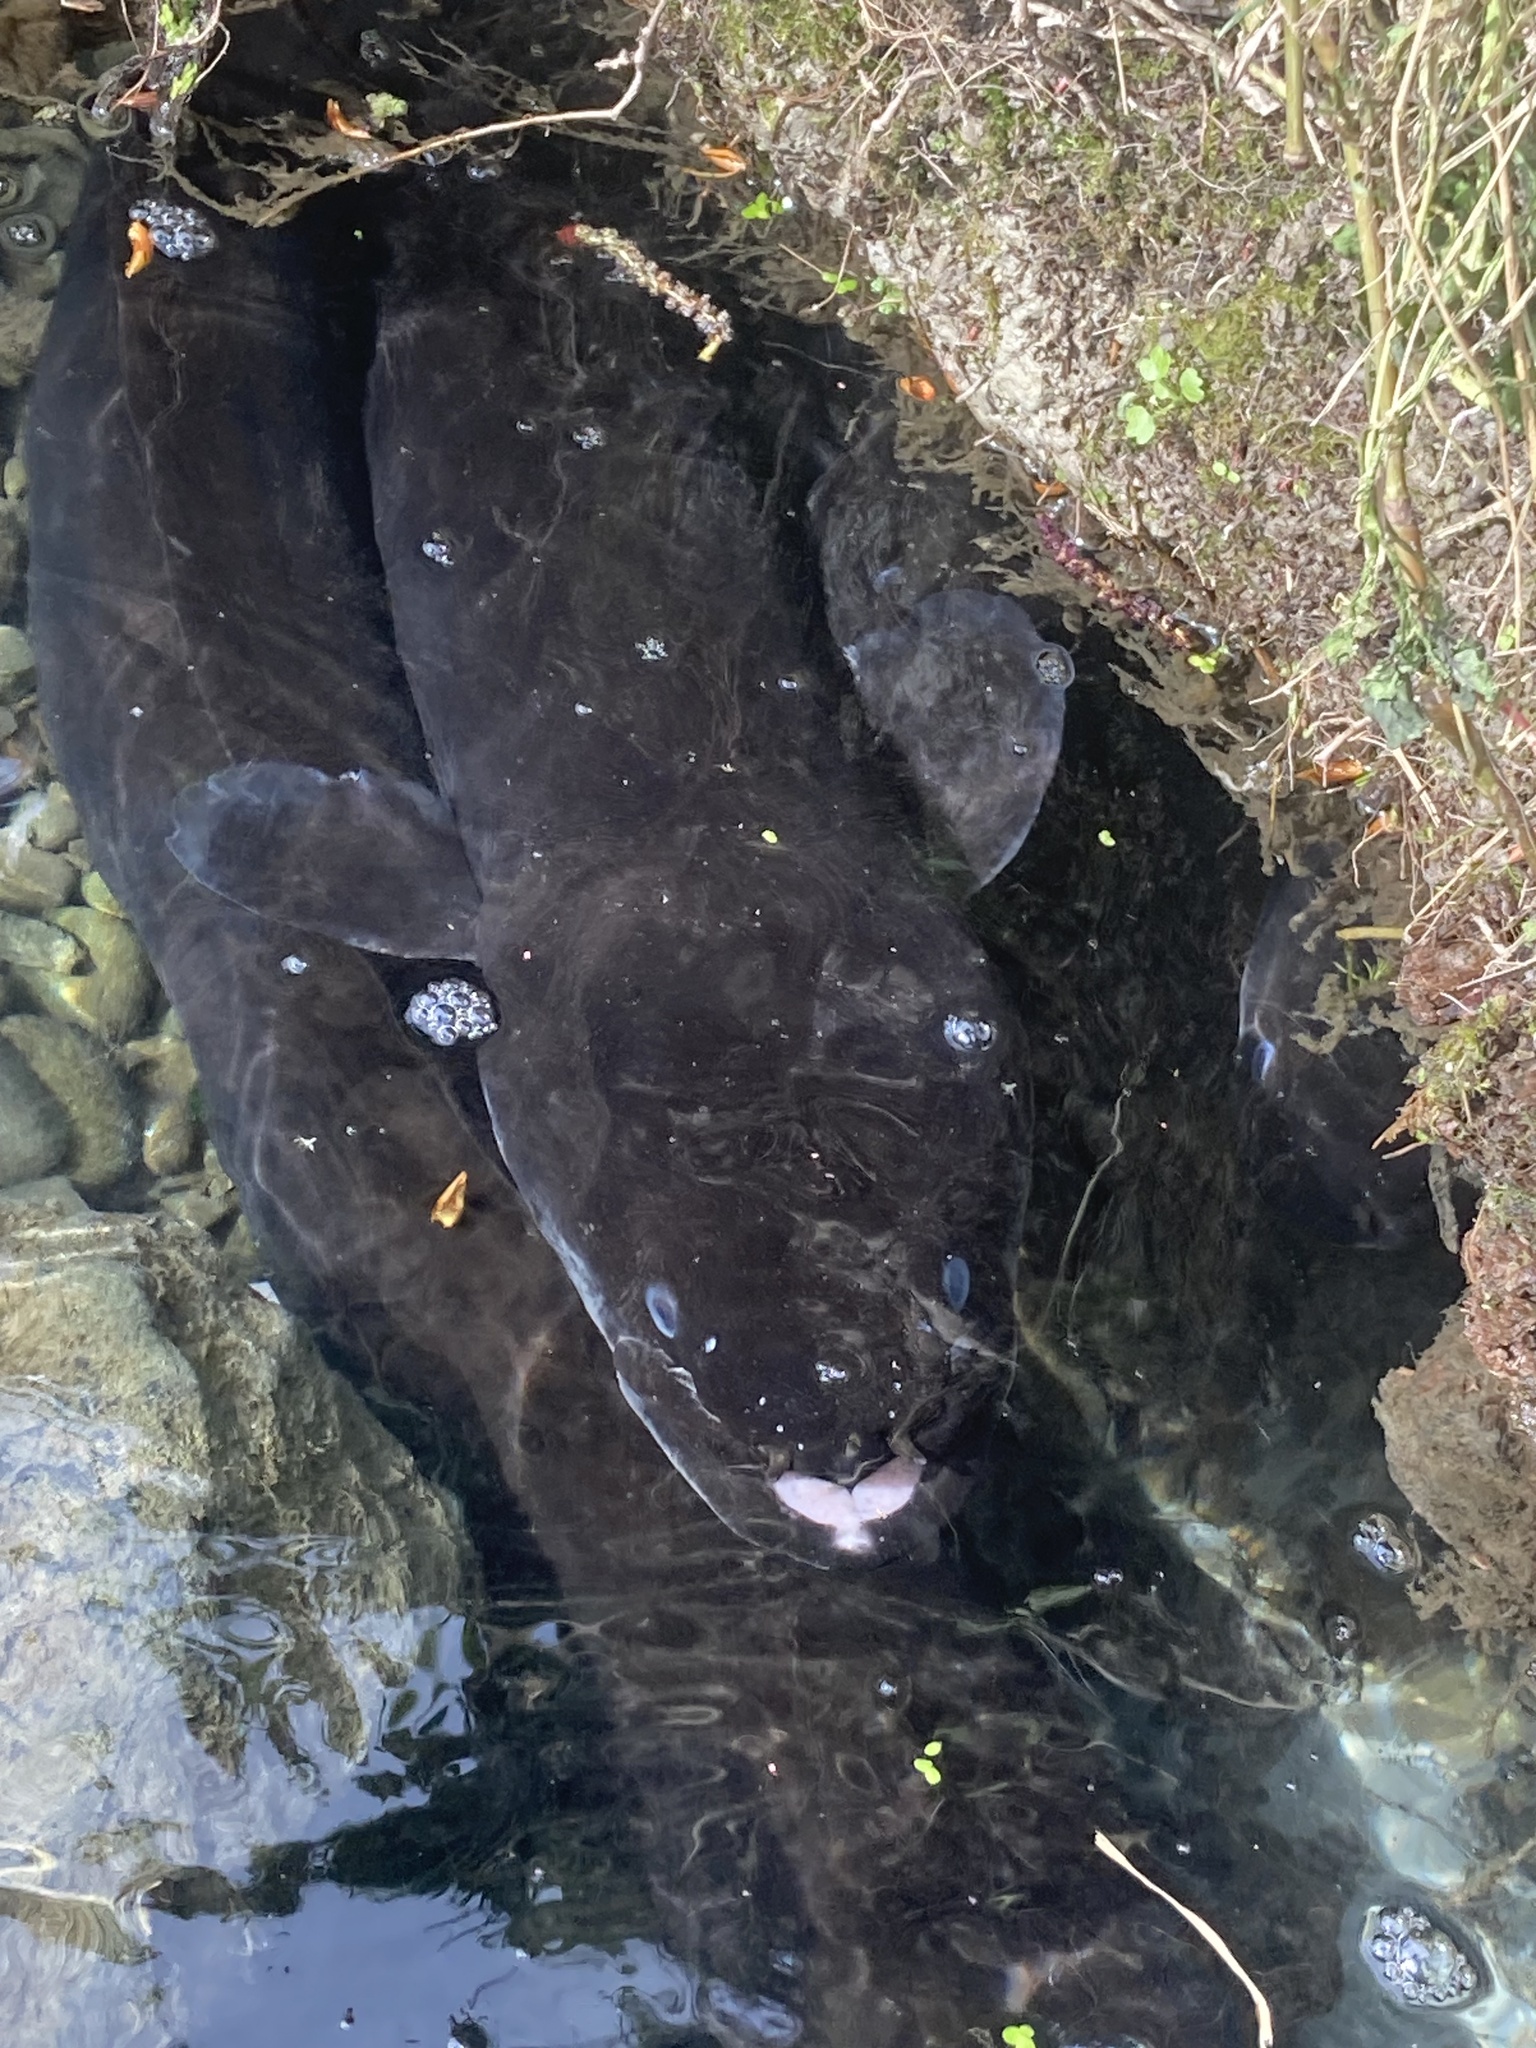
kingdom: Animalia
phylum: Chordata
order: Anguilliformes
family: Anguillidae
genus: Anguilla
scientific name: Anguilla dieffenbachii
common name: New zealand longfin eel
